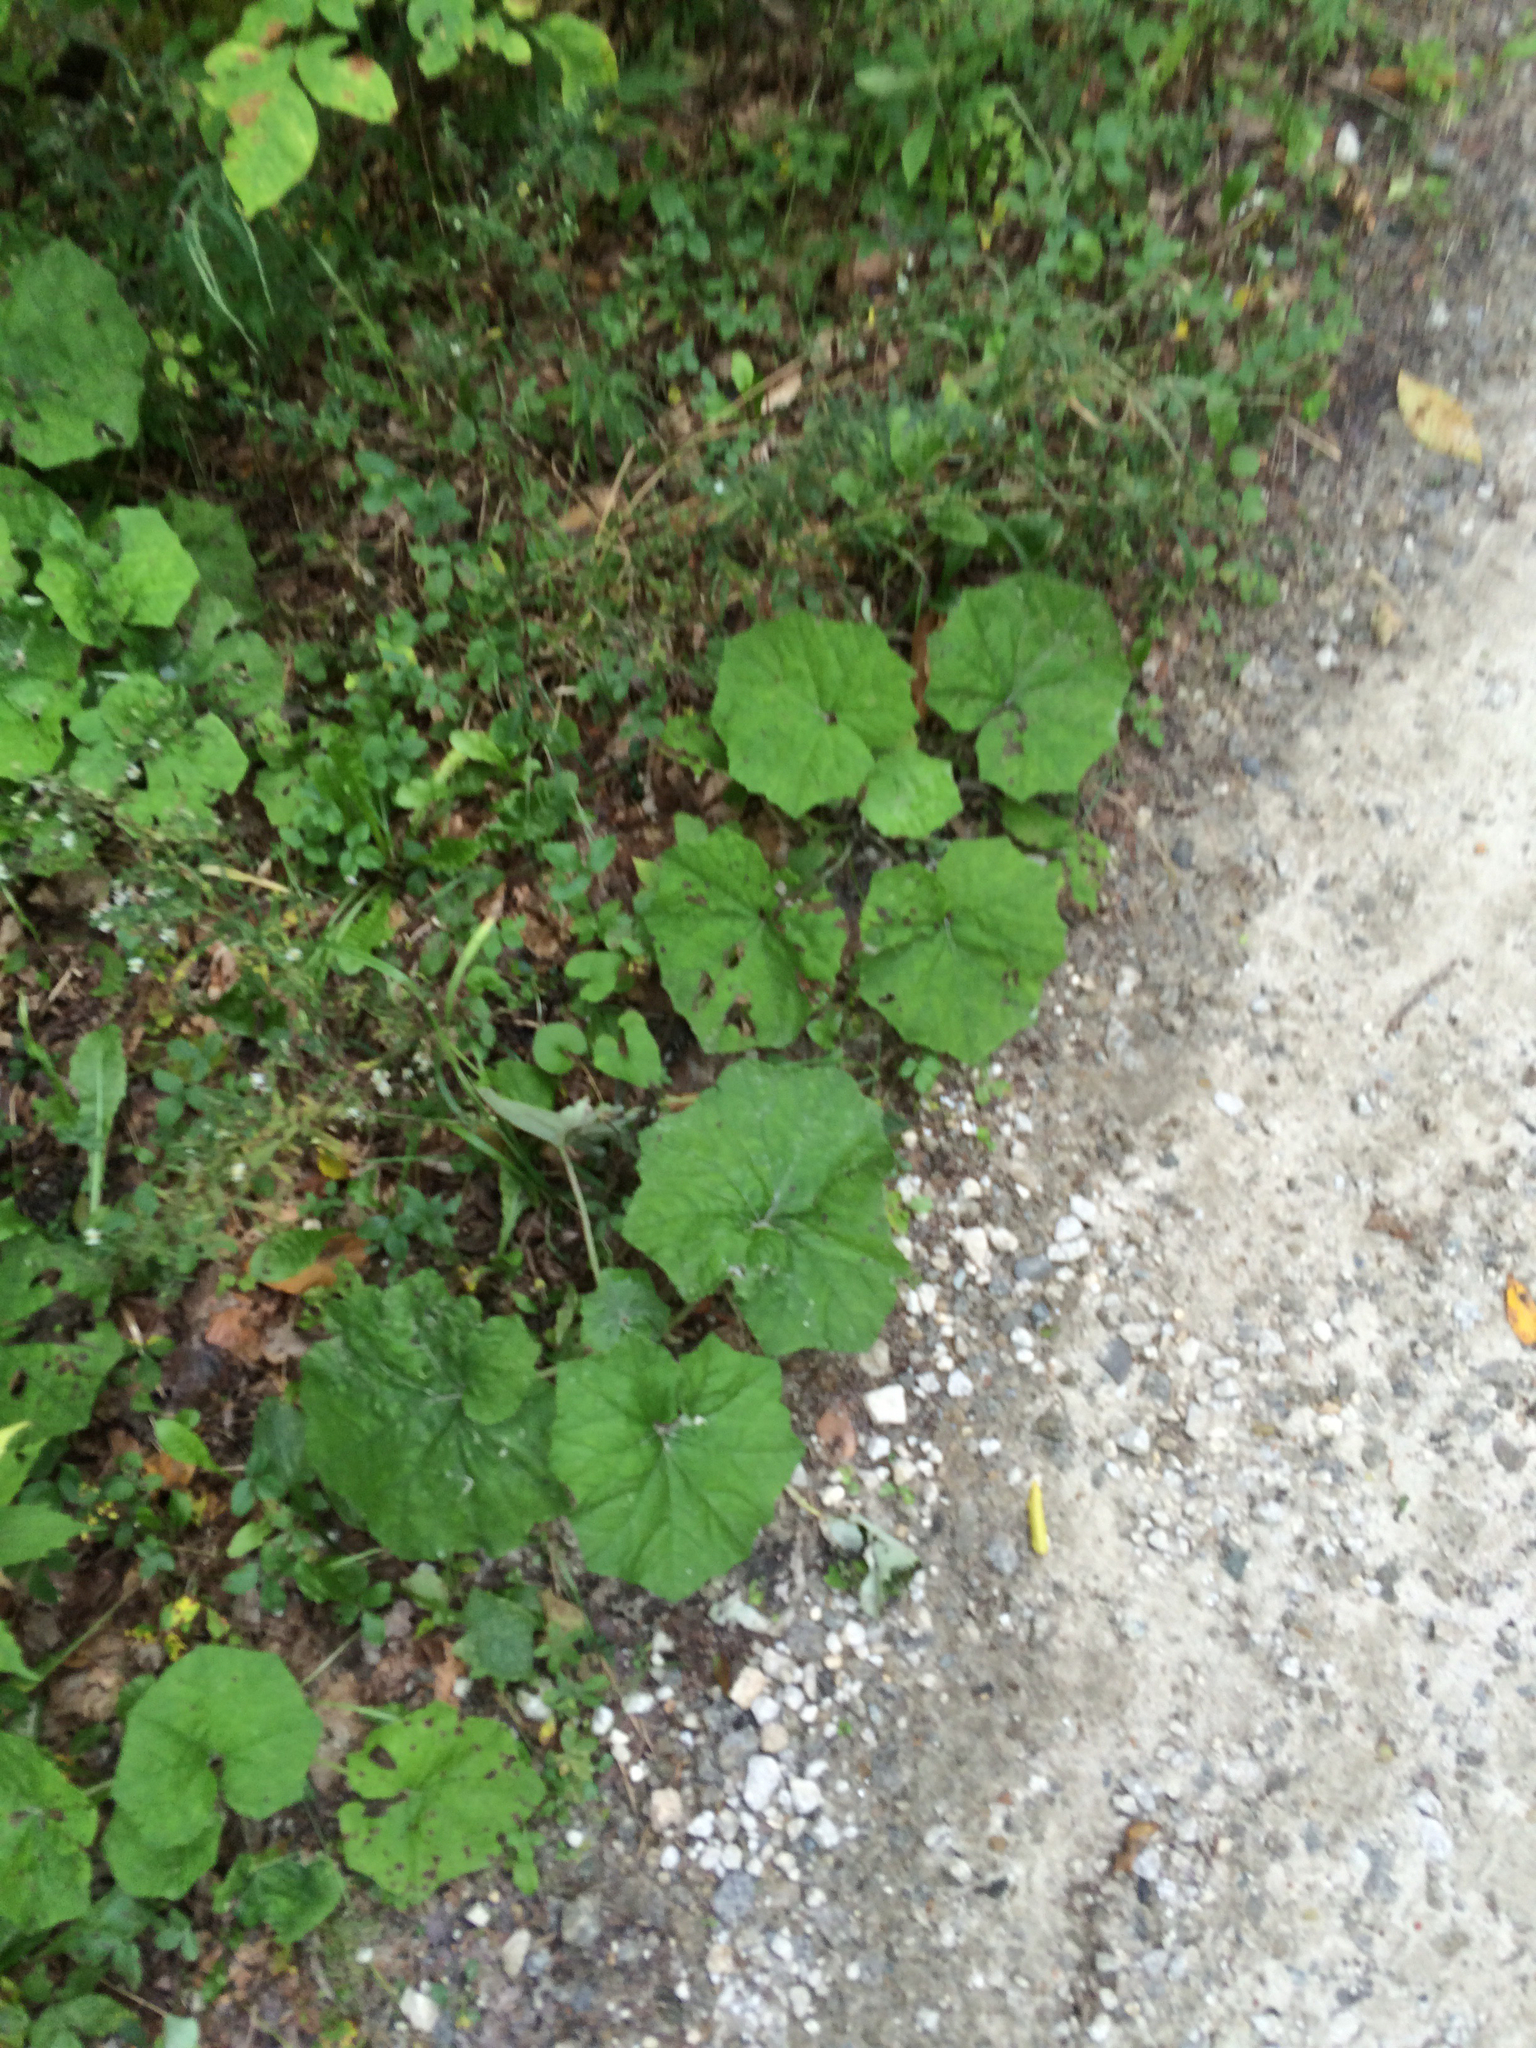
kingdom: Plantae
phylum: Tracheophyta
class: Magnoliopsida
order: Asterales
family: Asteraceae
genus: Tussilago
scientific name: Tussilago farfara
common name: Coltsfoot
